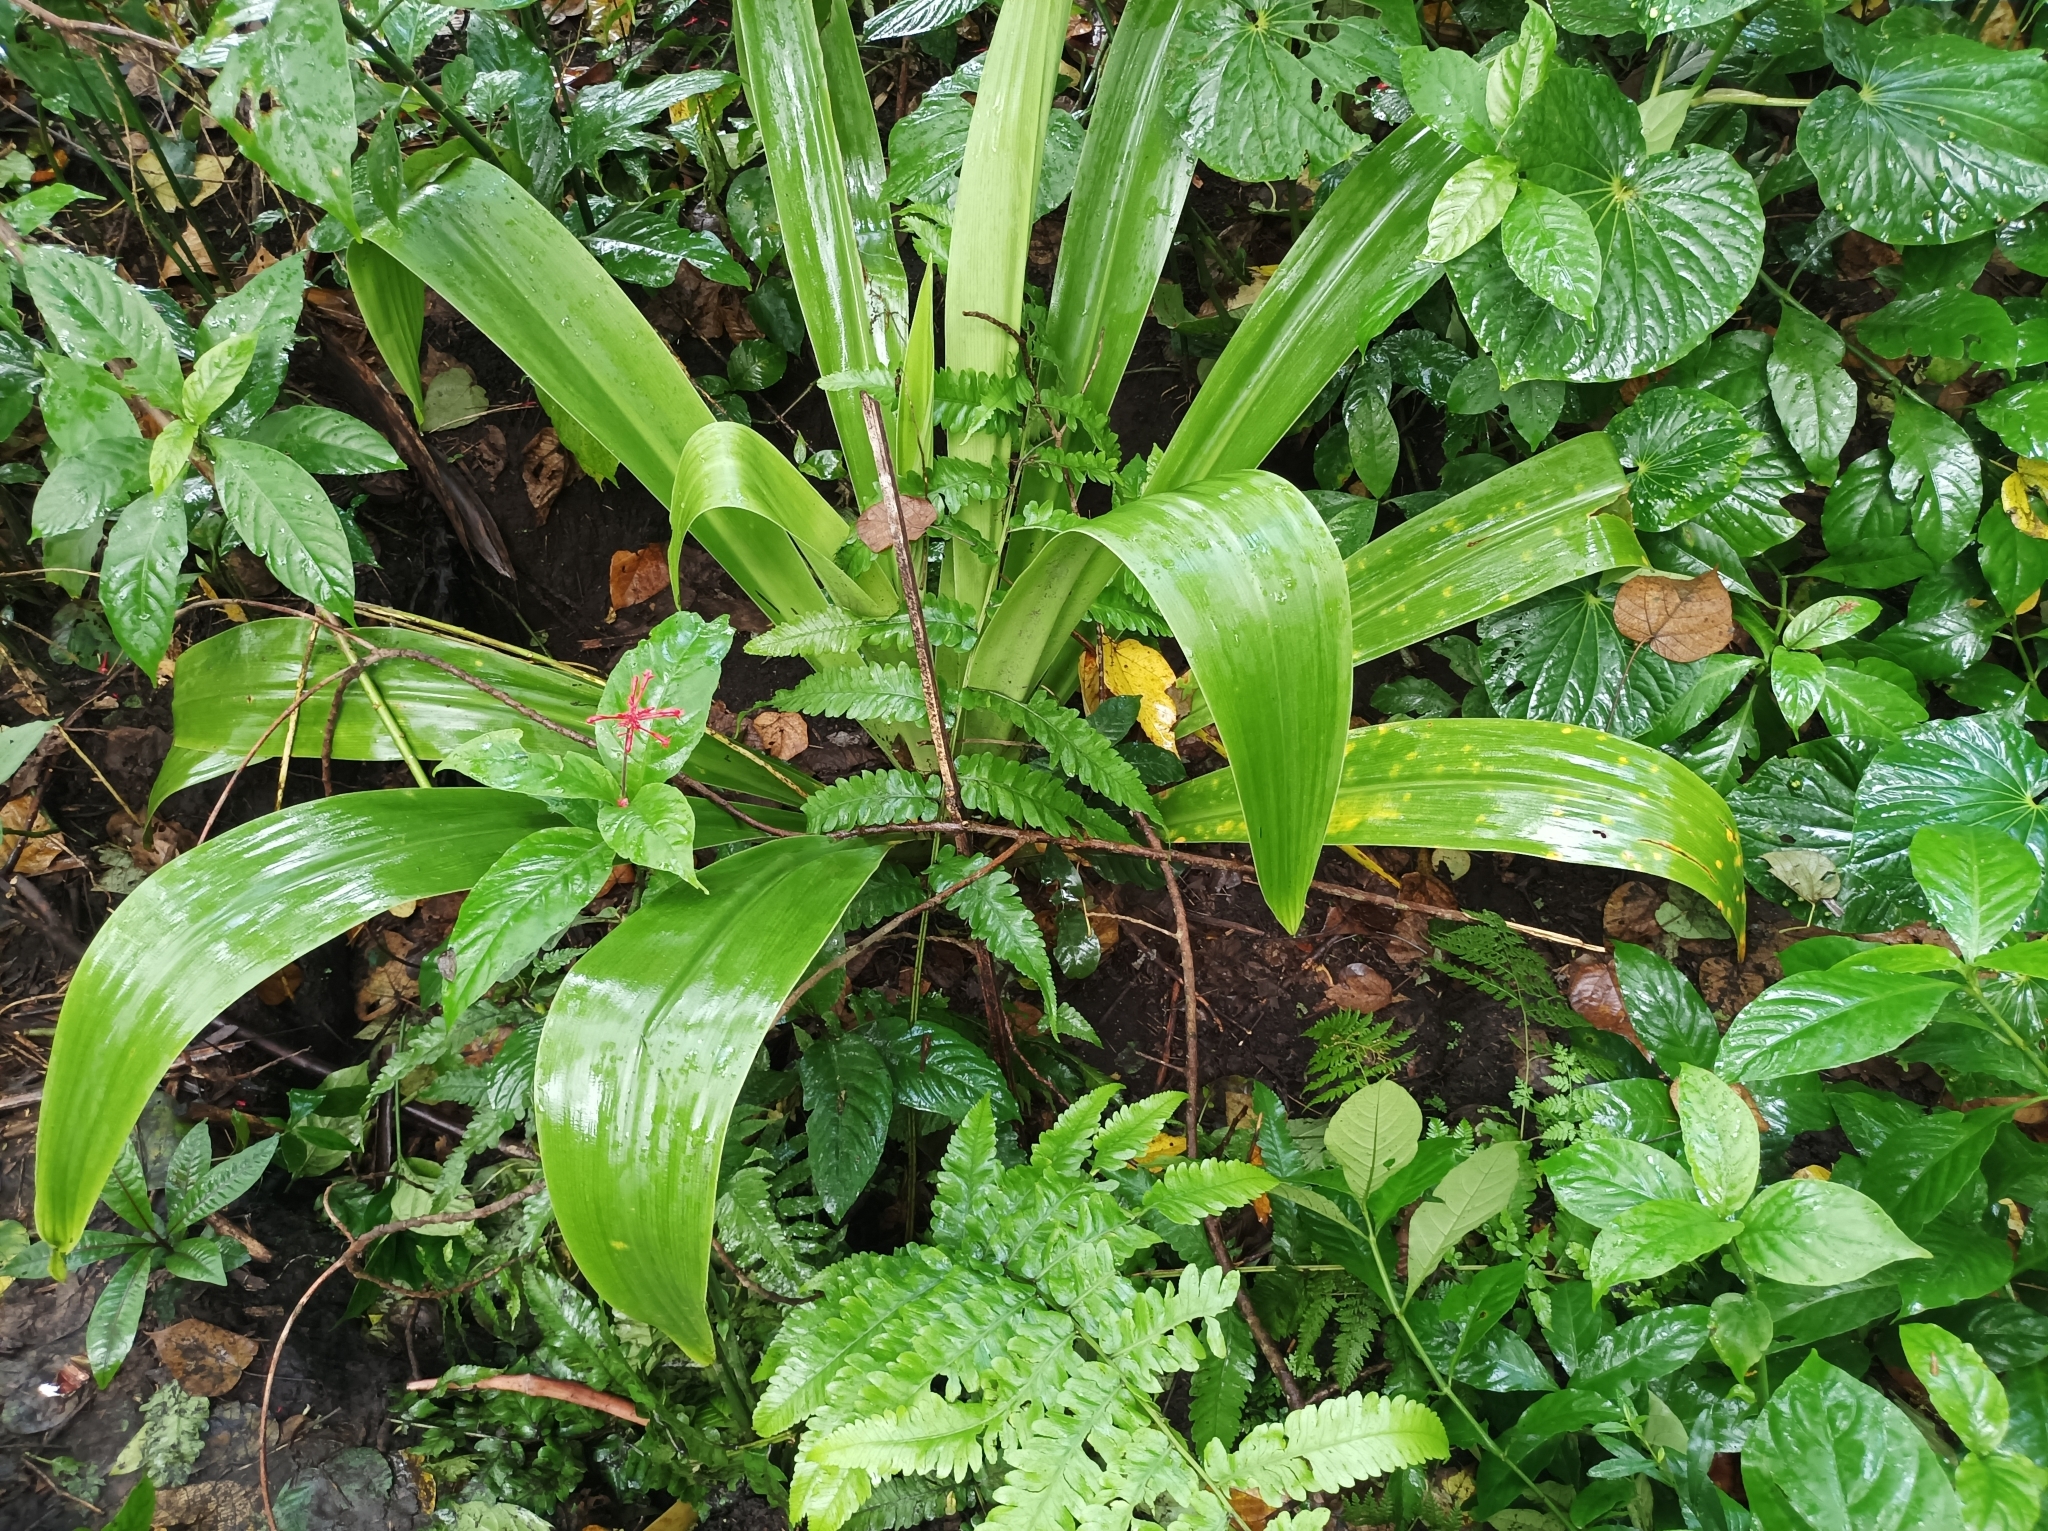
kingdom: Plantae
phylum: Tracheophyta
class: Liliopsida
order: Asparagales
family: Amaryllidaceae
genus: Crinum
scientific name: Crinum asiaticum
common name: Poisonbulb
